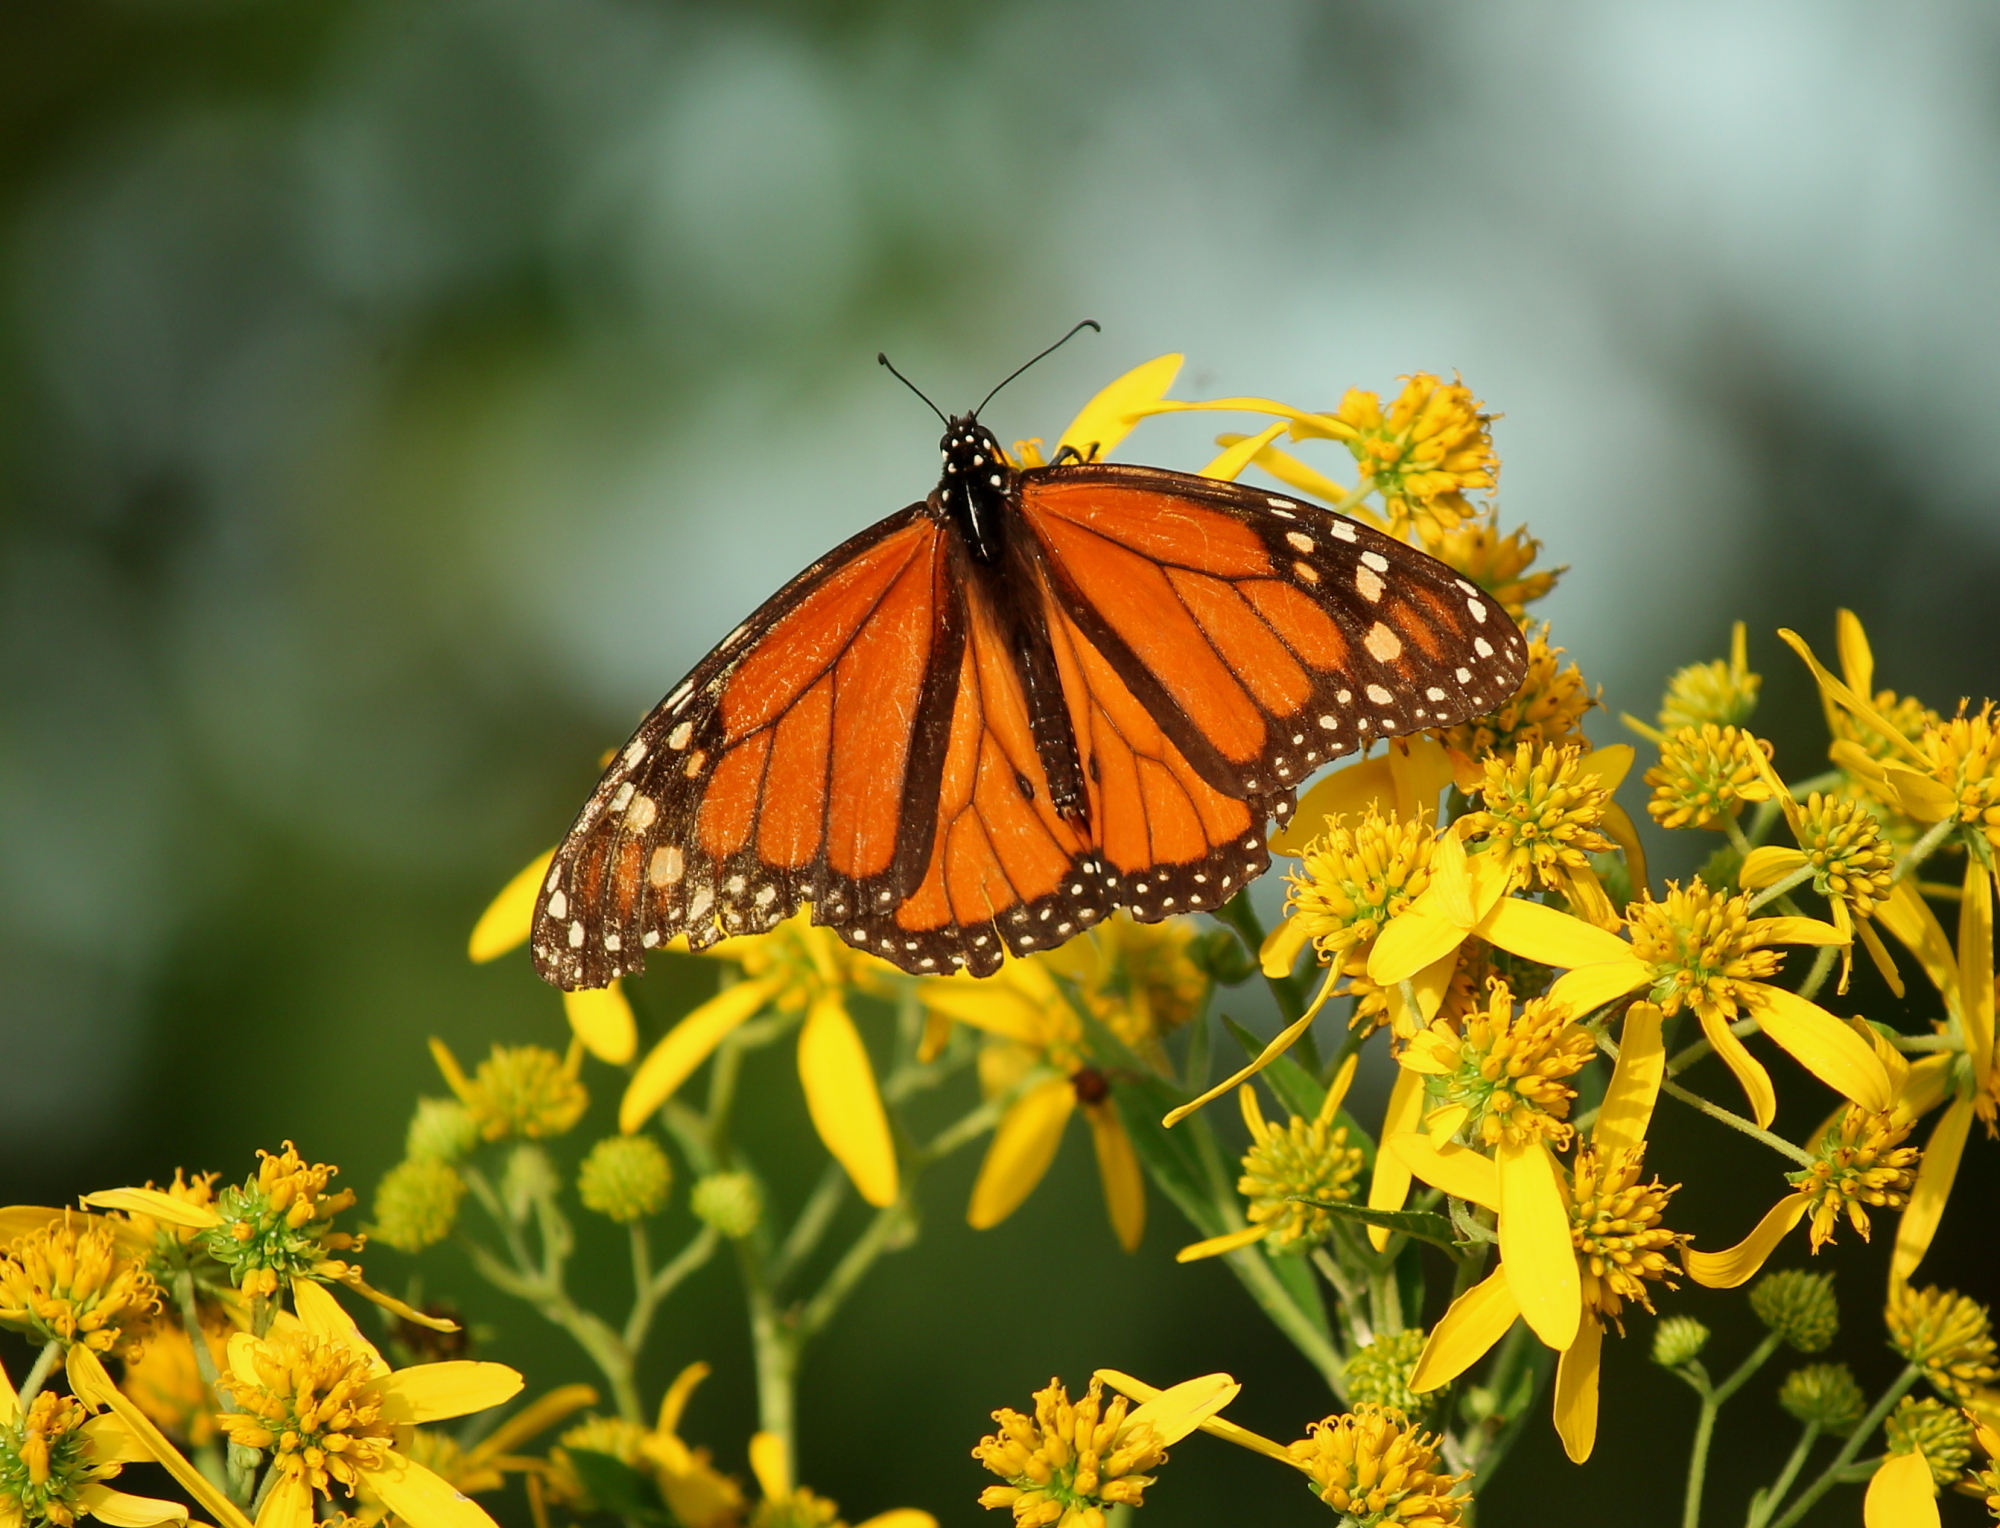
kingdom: Animalia
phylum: Arthropoda
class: Insecta
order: Lepidoptera
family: Nymphalidae
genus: Danaus
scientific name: Danaus plexippus
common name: Monarch
